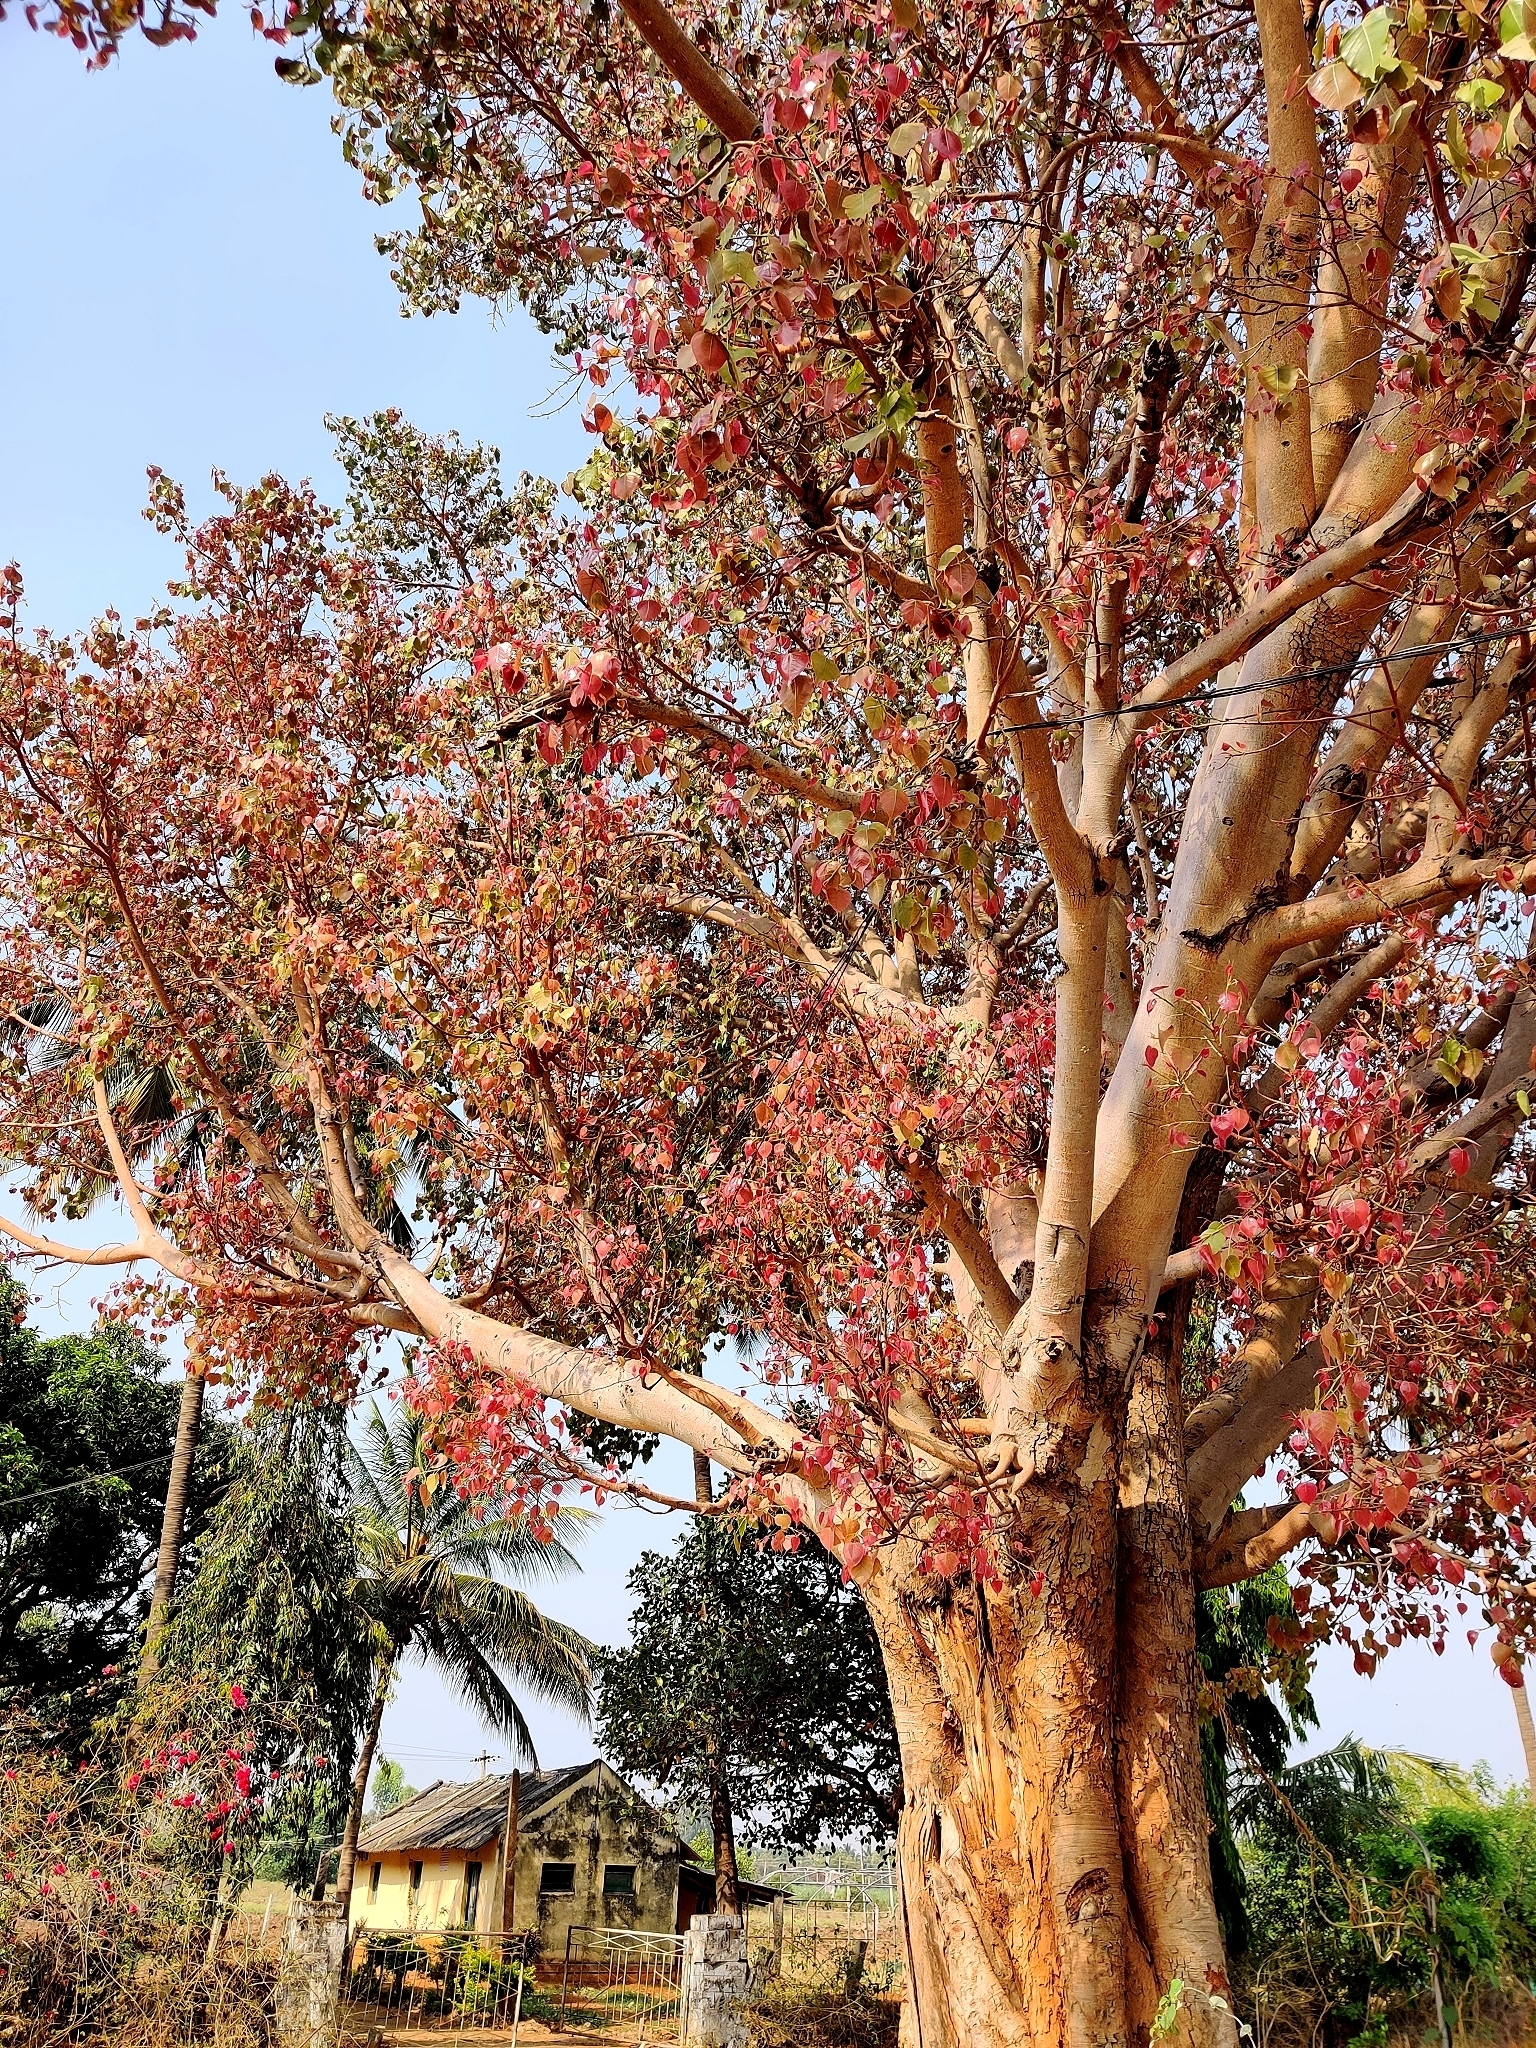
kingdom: Plantae
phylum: Tracheophyta
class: Magnoliopsida
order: Rosales
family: Moraceae
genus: Ficus
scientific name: Ficus religiosa
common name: Bodhi tree
